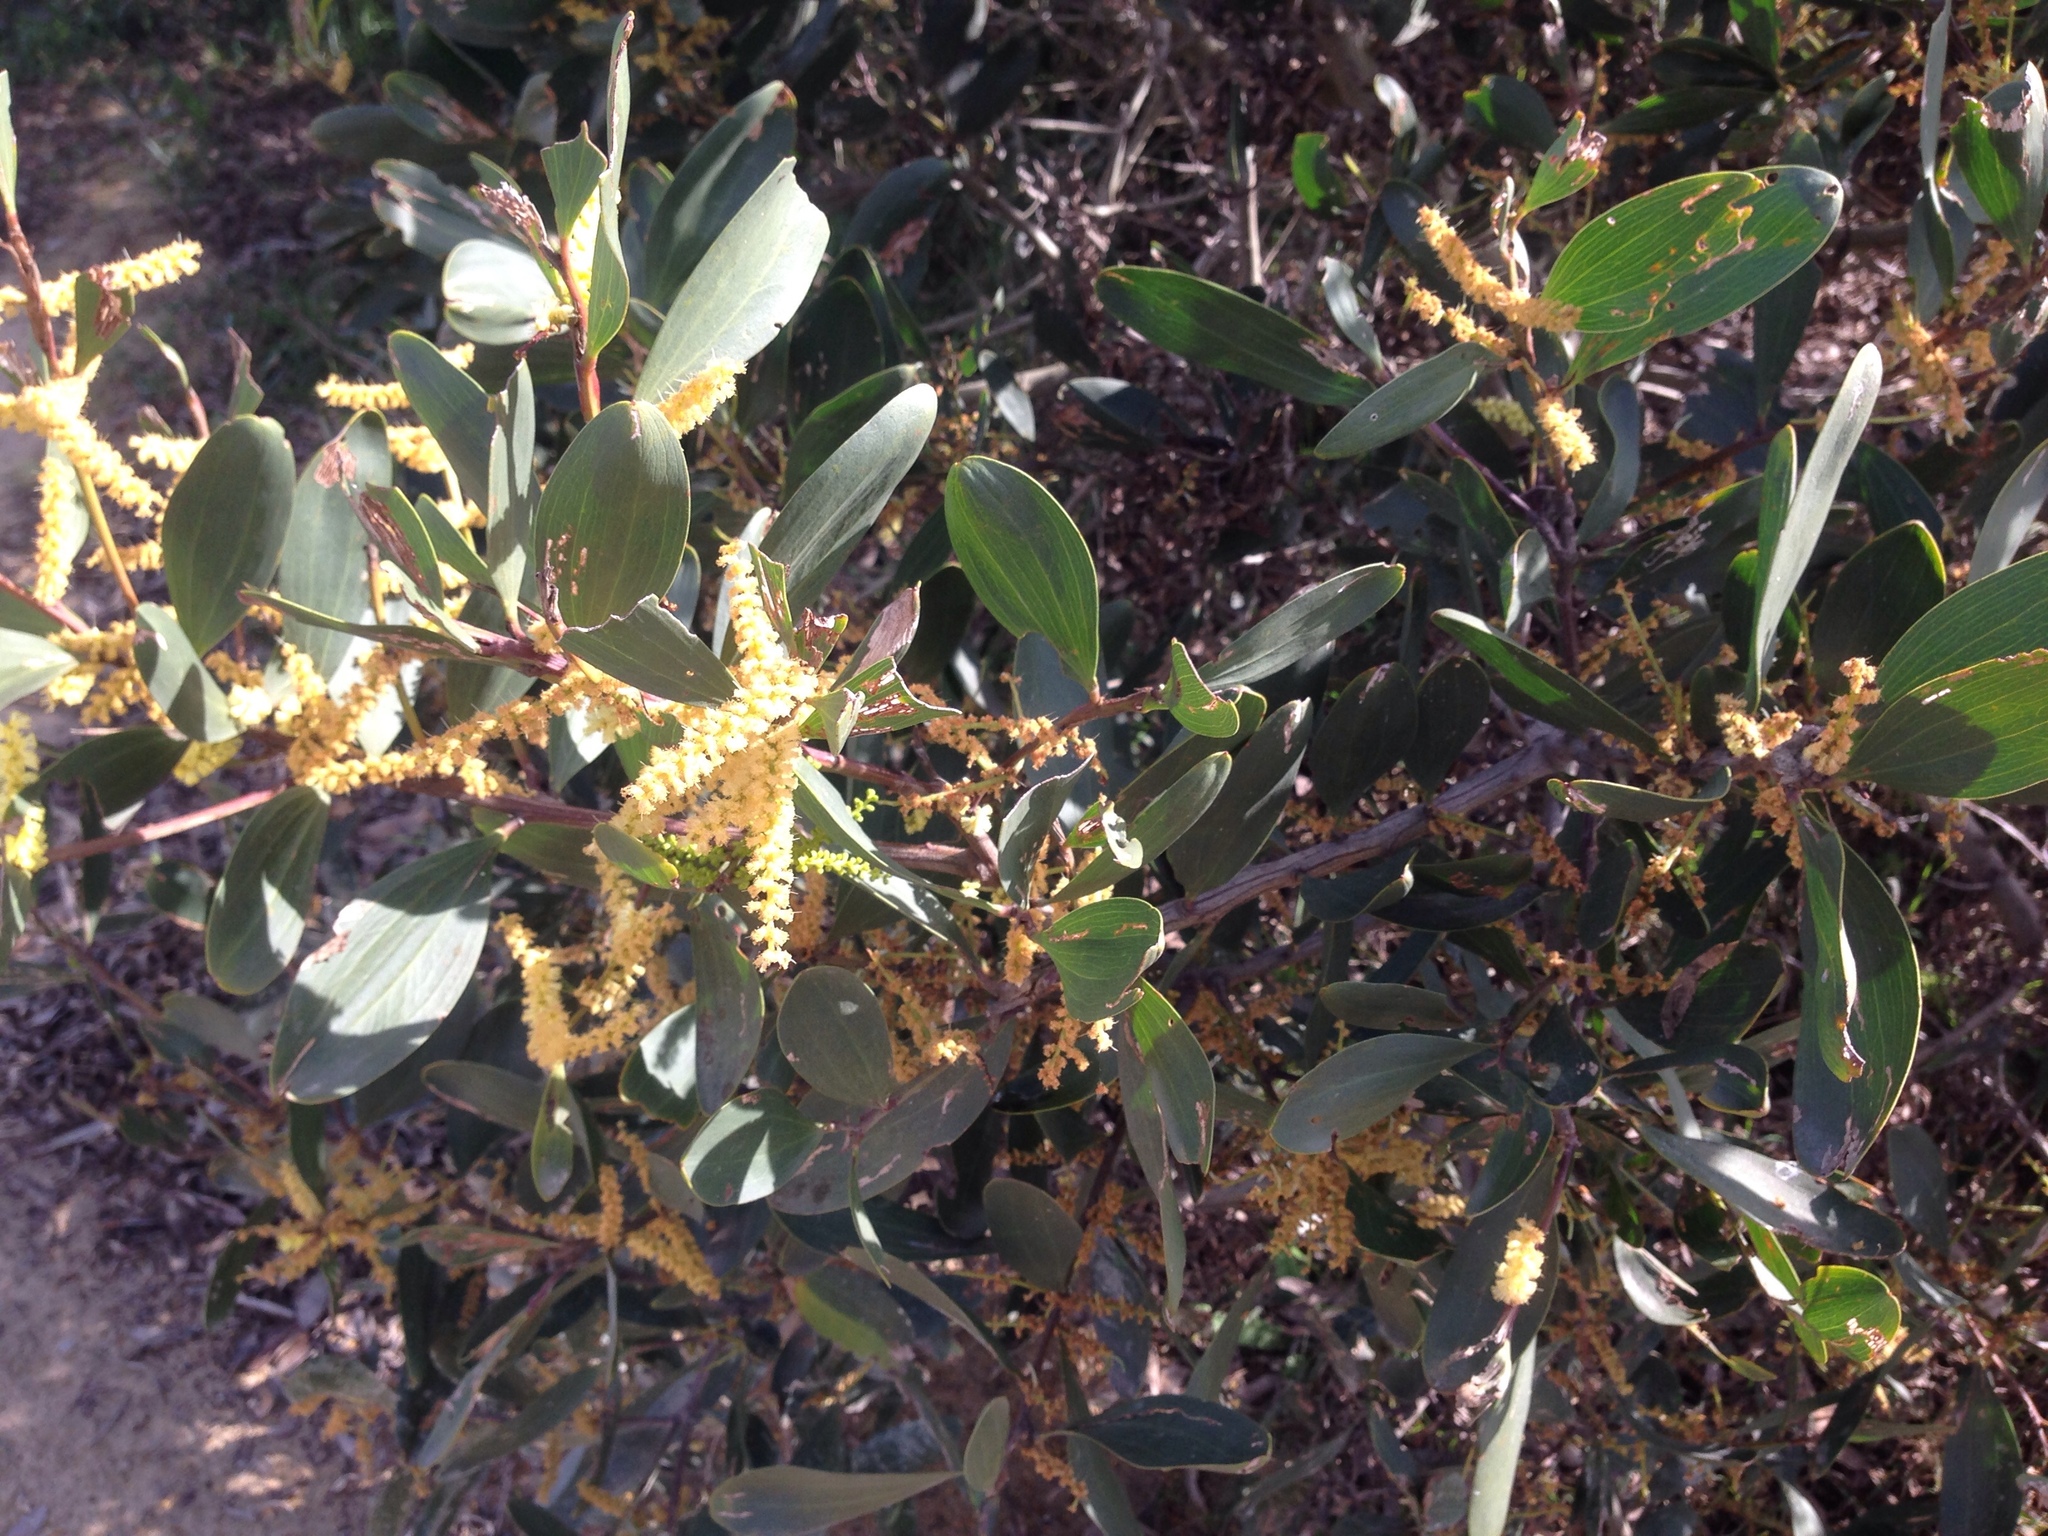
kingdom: Plantae
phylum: Tracheophyta
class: Magnoliopsida
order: Fabales
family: Fabaceae
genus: Acacia
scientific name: Acacia longifolia
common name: Sydney golden wattle
